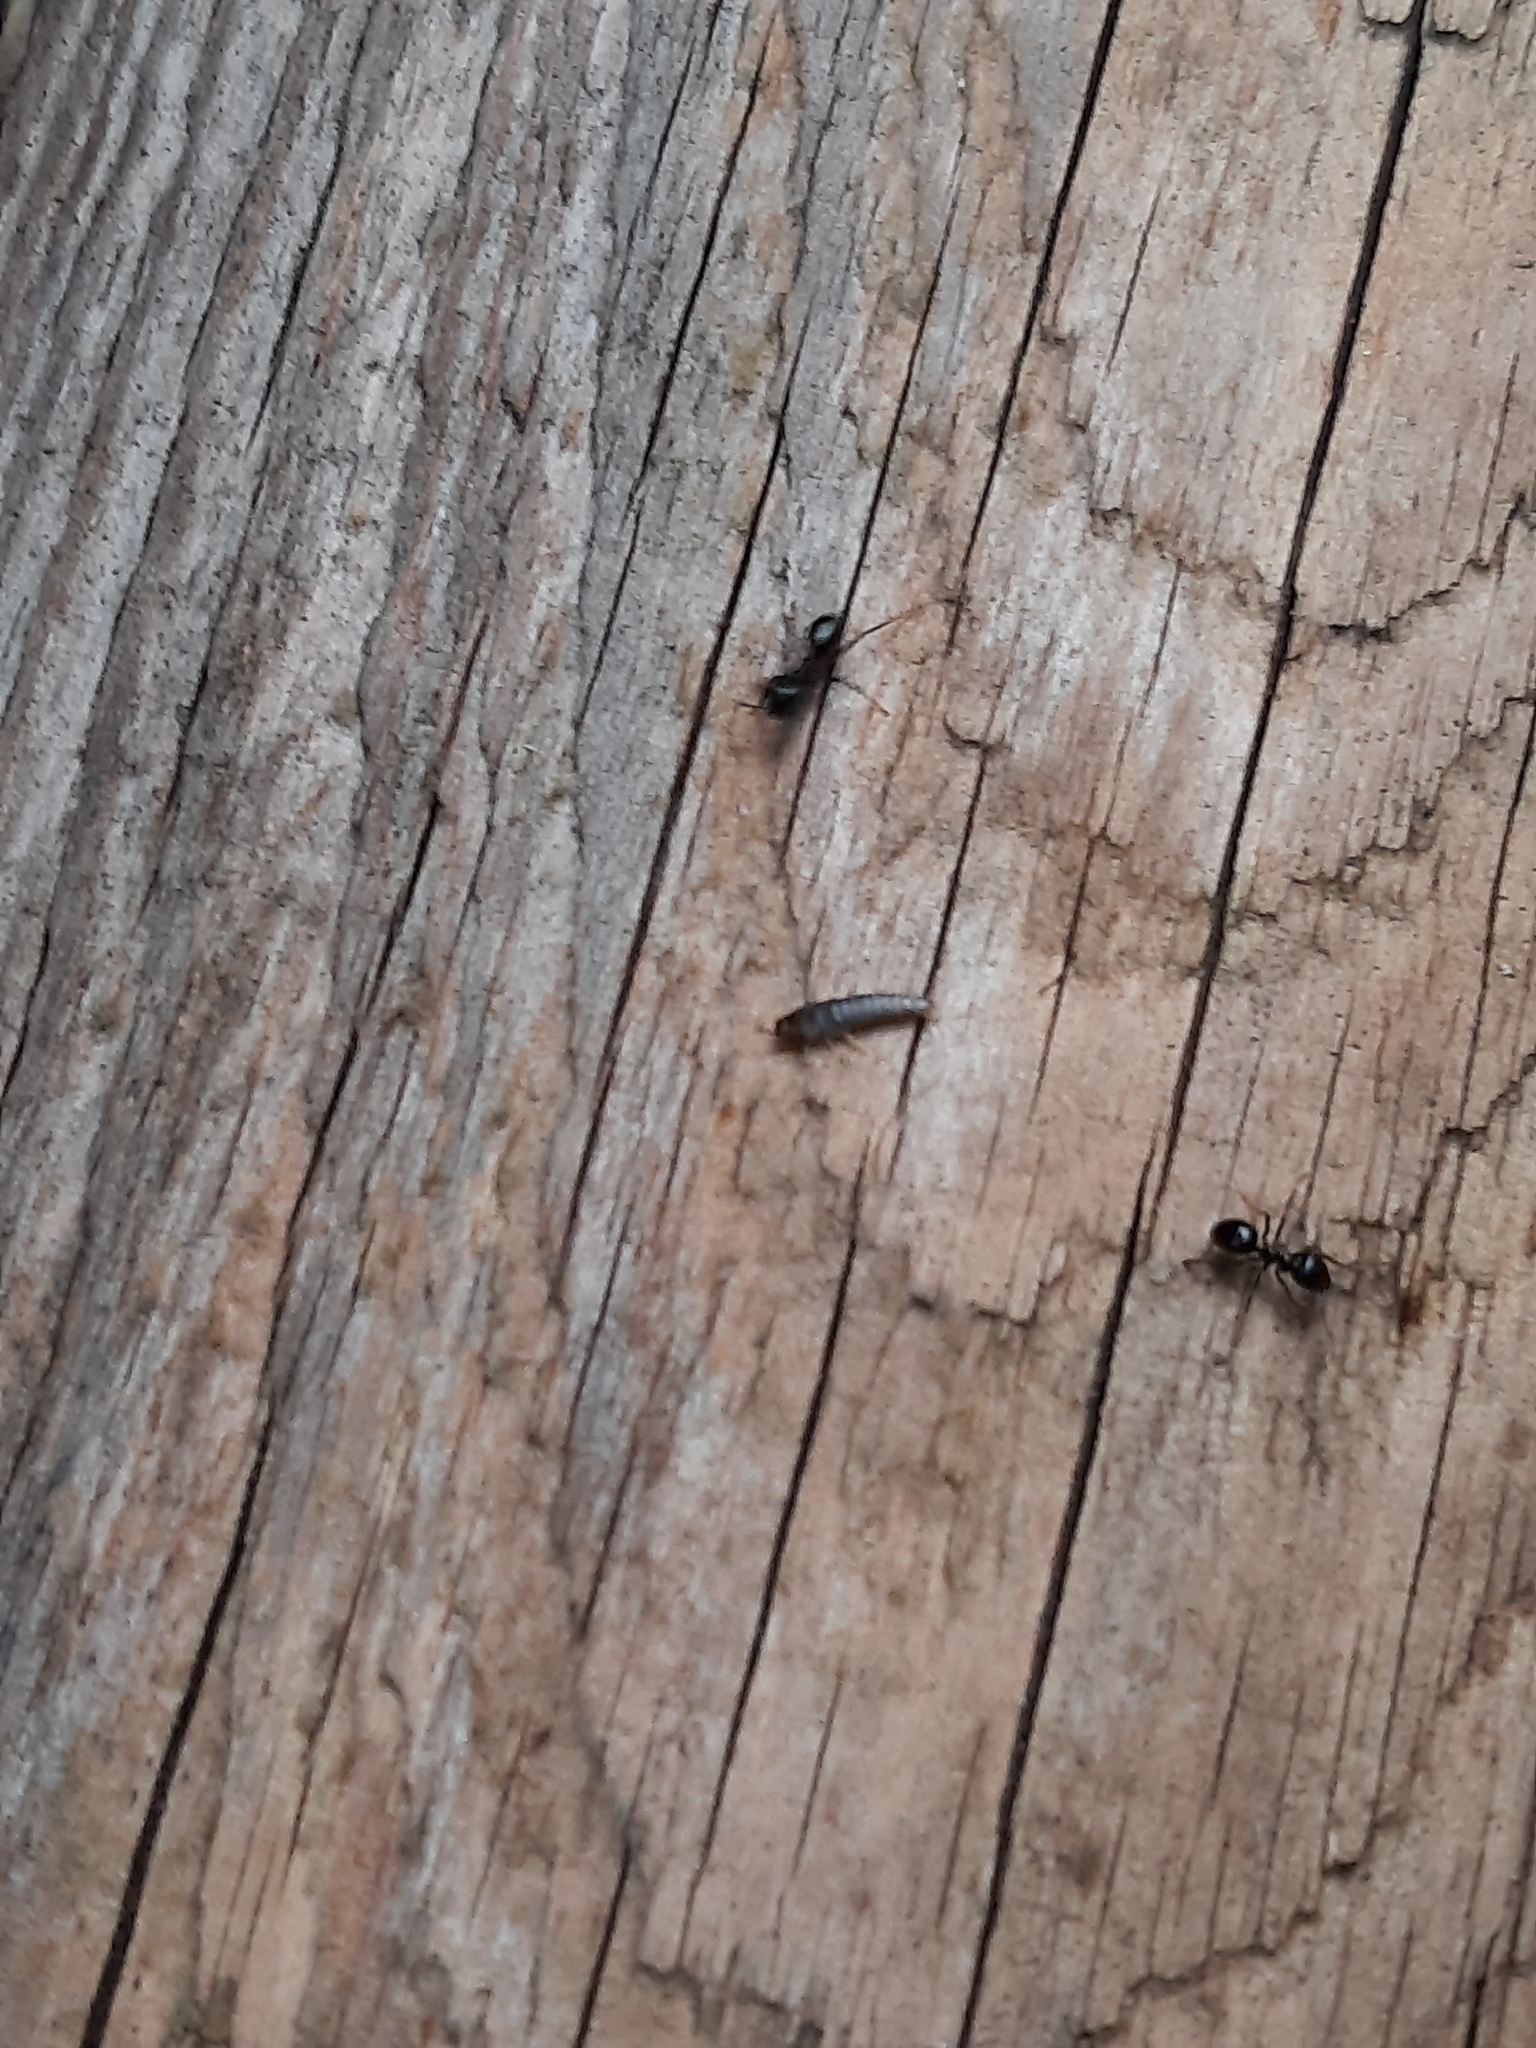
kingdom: Animalia
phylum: Arthropoda
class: Insecta
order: Zygentoma
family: Lepismatidae
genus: Lepisma
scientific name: Lepisma saccharinum
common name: Silverfish
